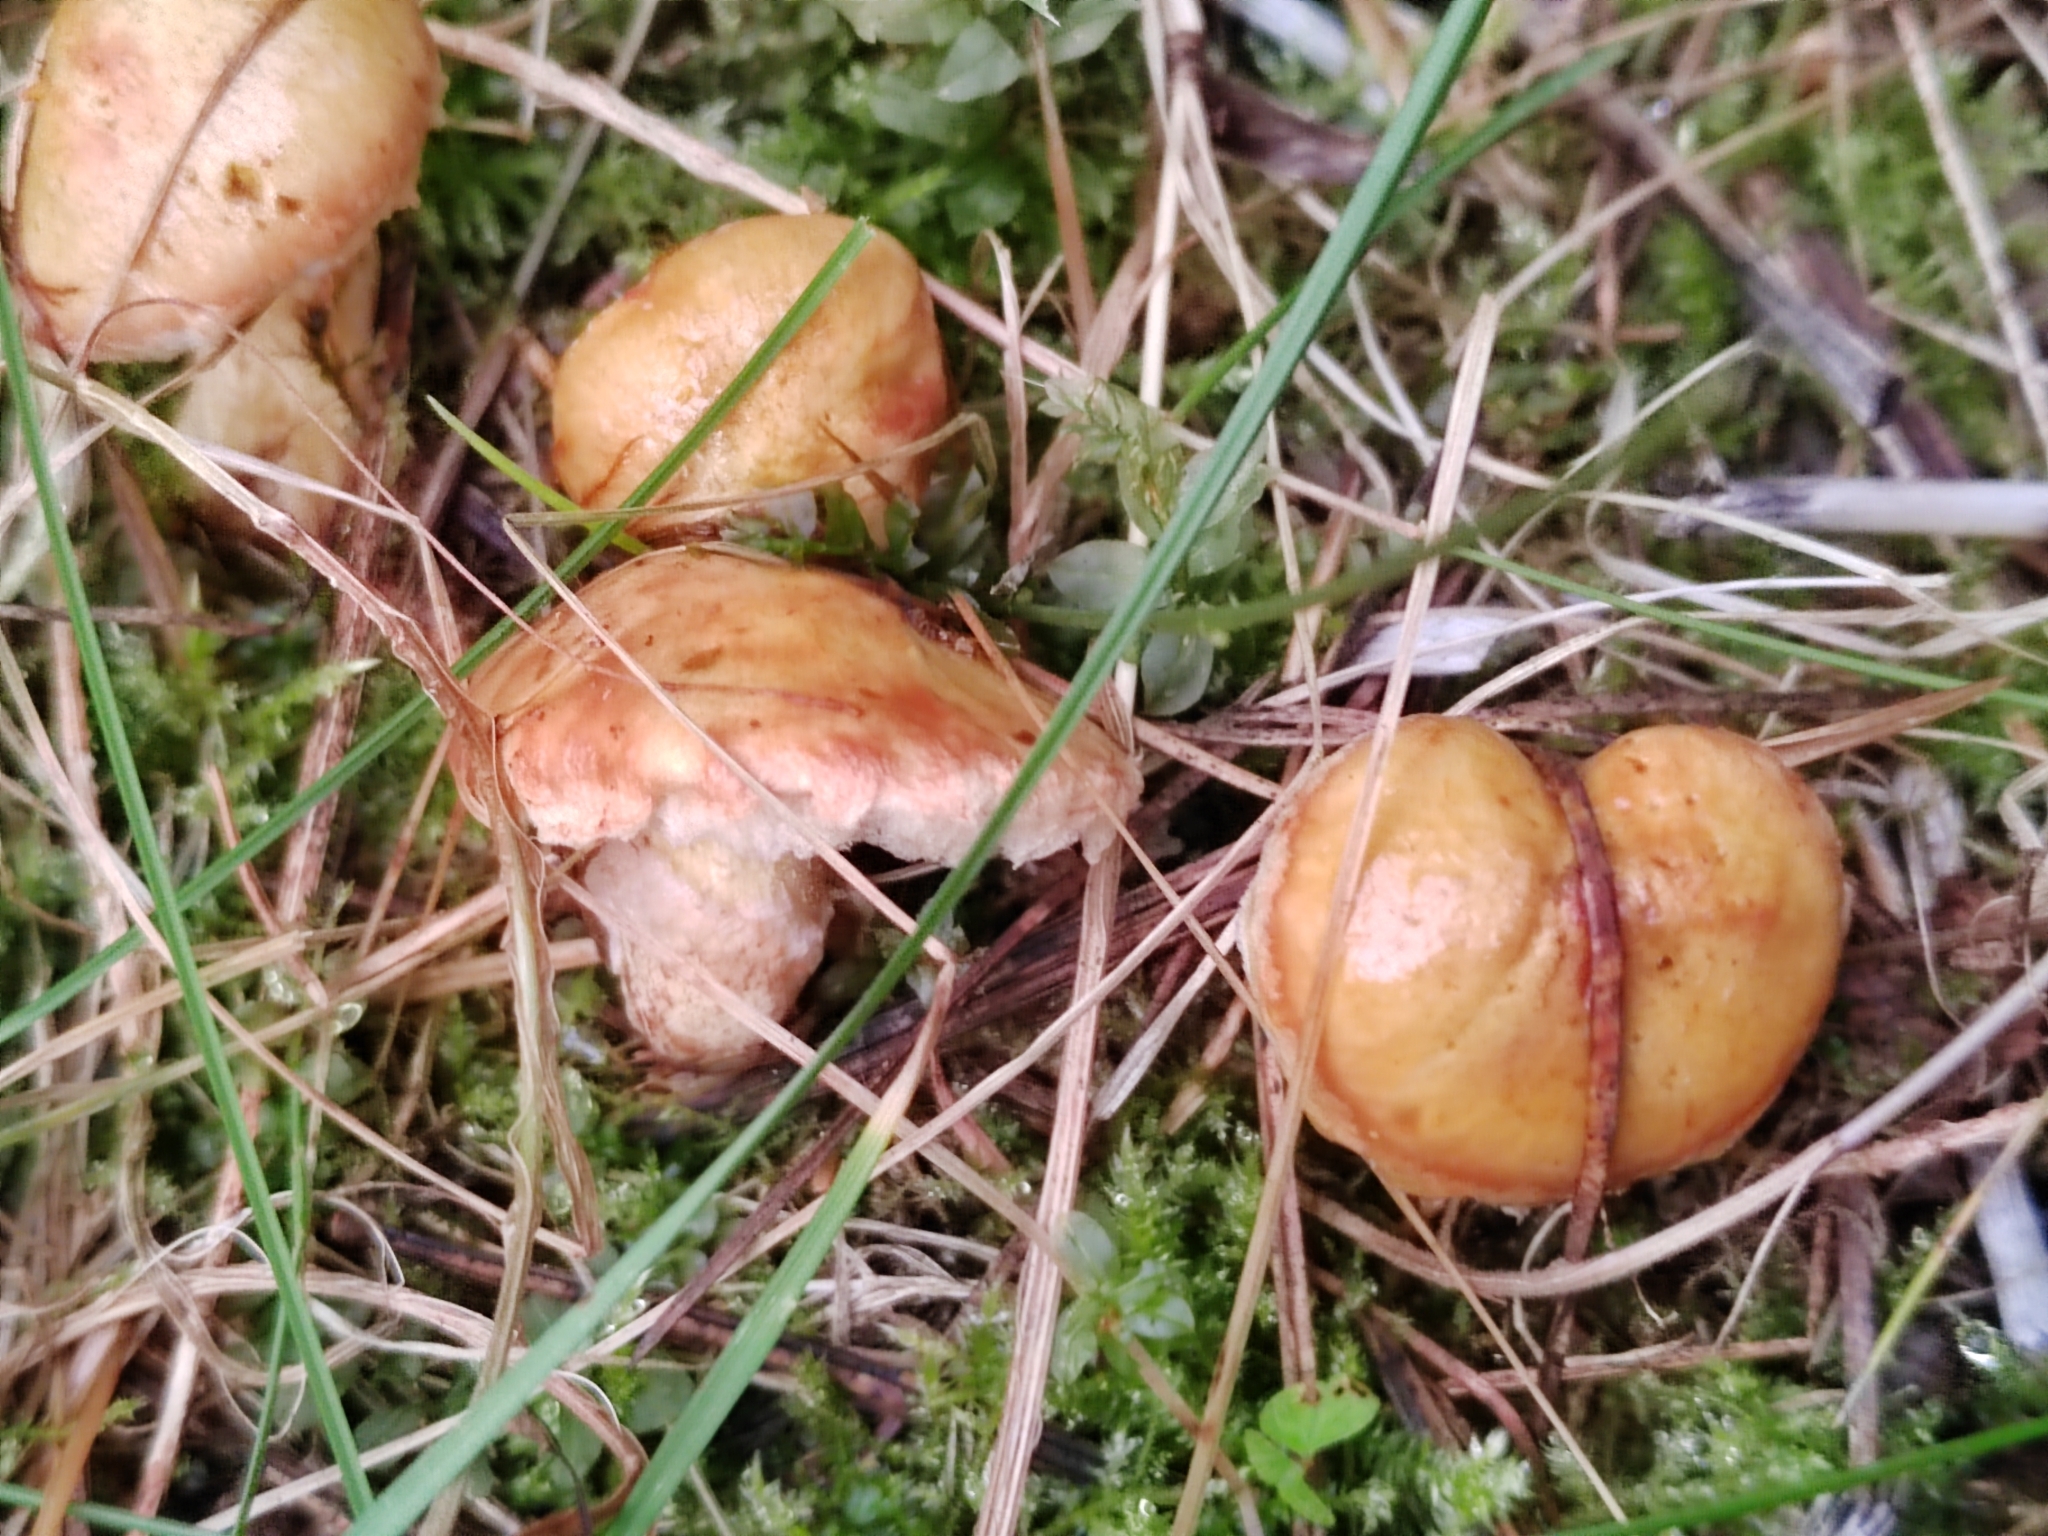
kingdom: Fungi
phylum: Basidiomycota
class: Agaricomycetes
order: Boletales
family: Suillaceae
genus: Suillus
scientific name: Suillus americanus
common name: Chicken fat mushroom
